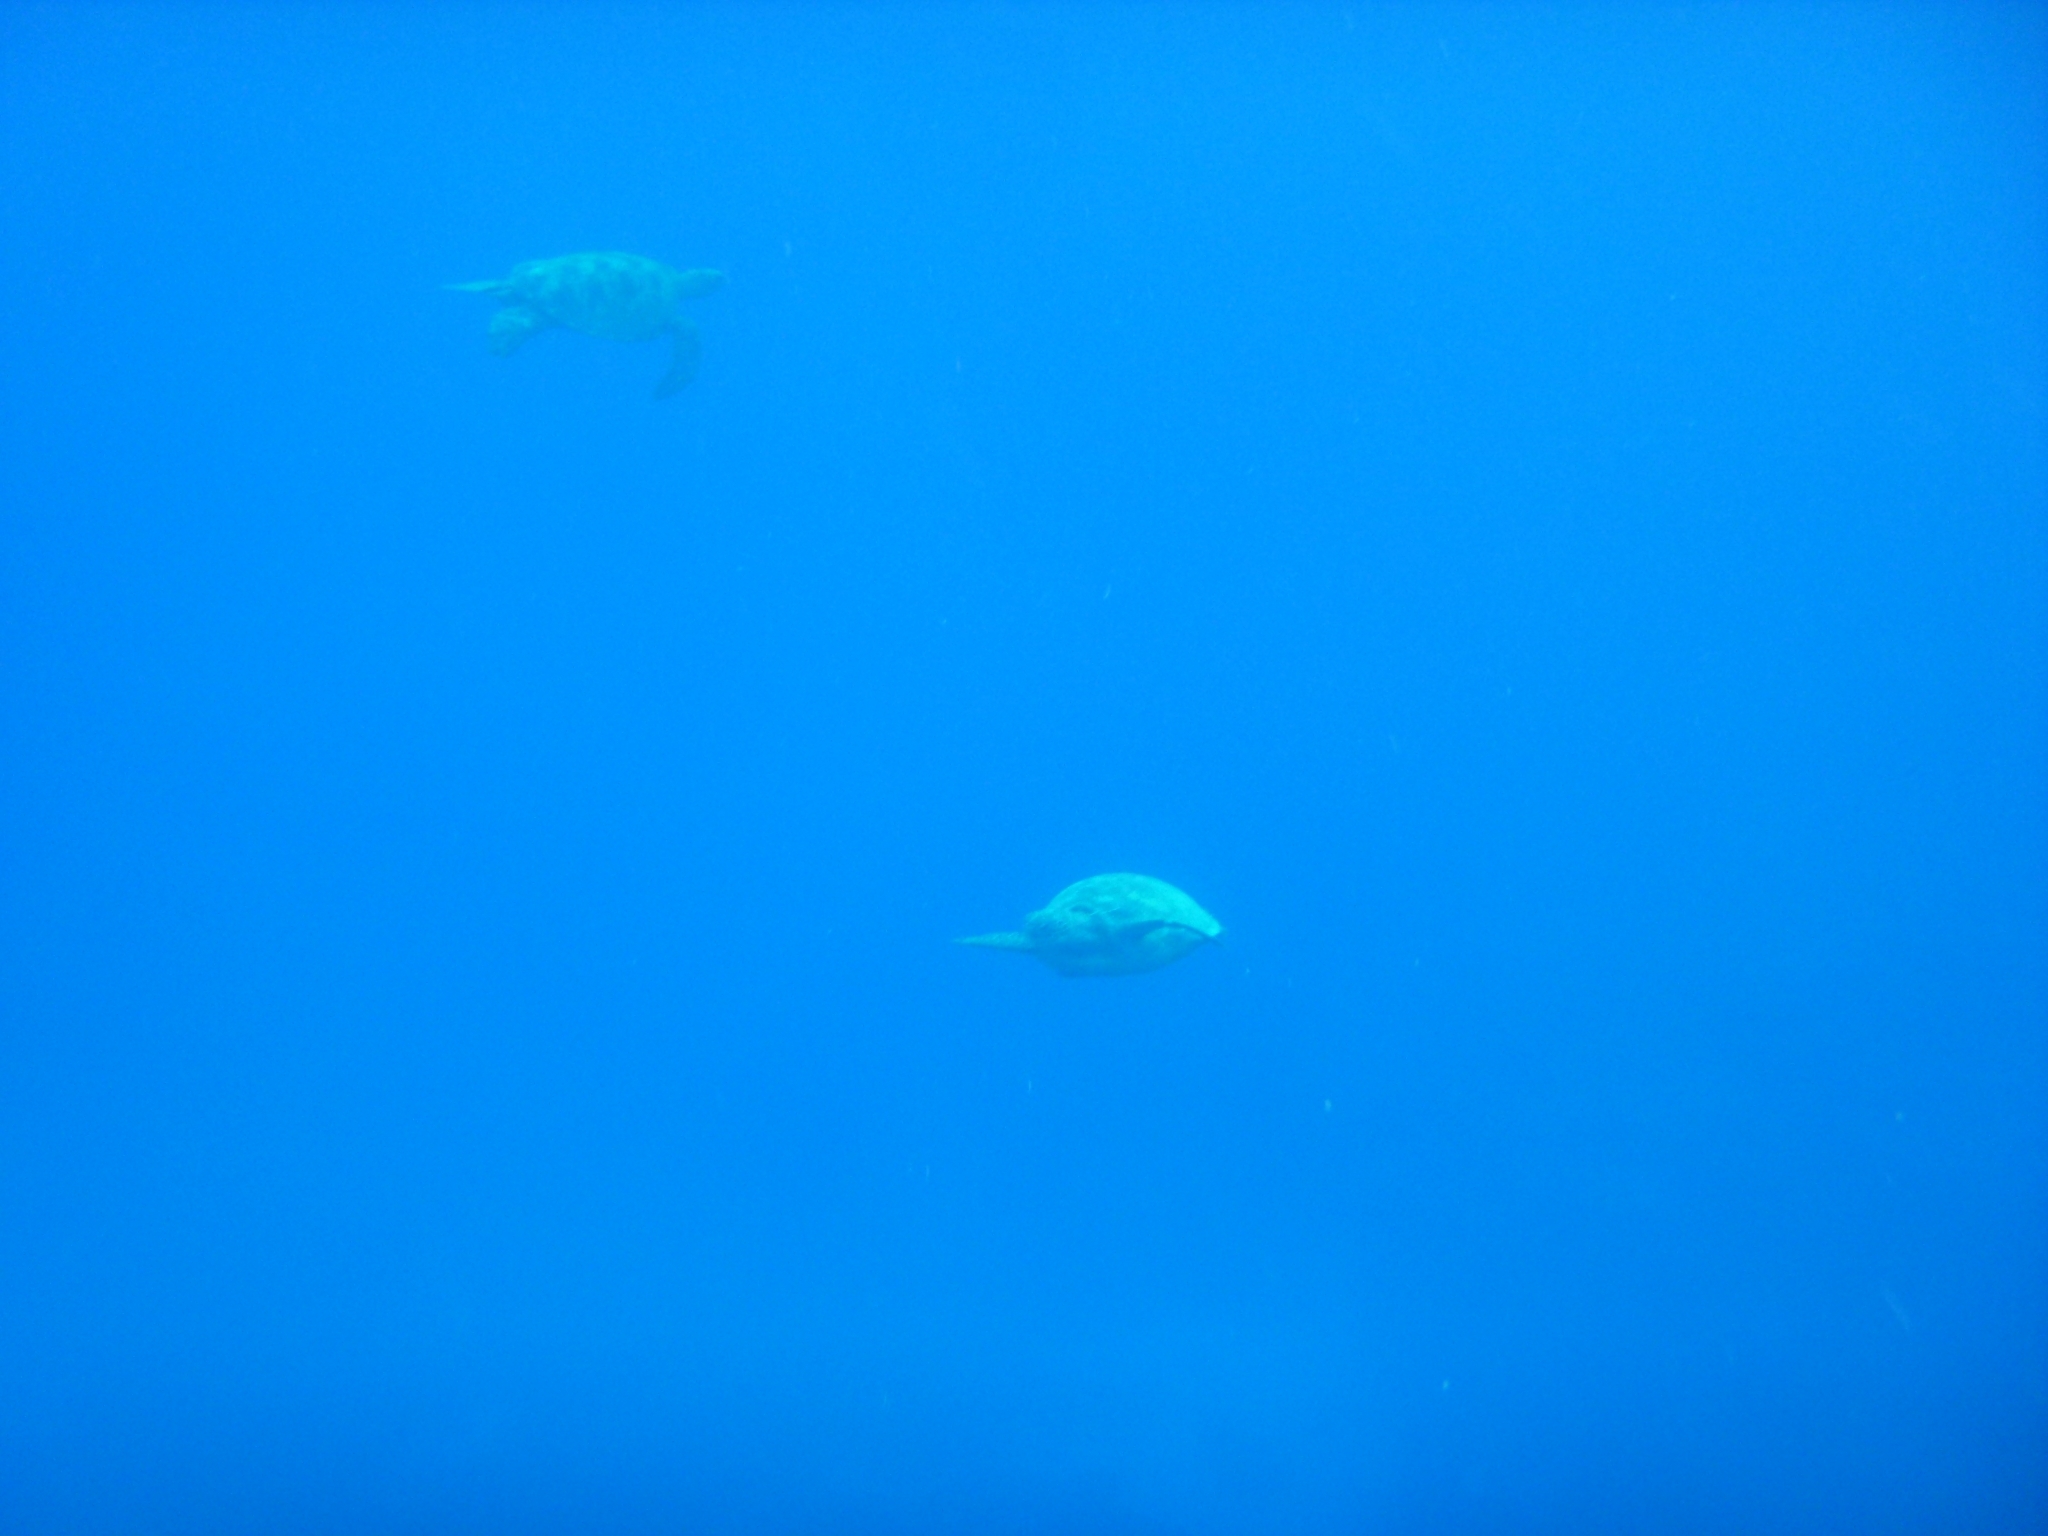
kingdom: Animalia
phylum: Chordata
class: Testudines
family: Cheloniidae
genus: Chelonia
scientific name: Chelonia mydas
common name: Green turtle
